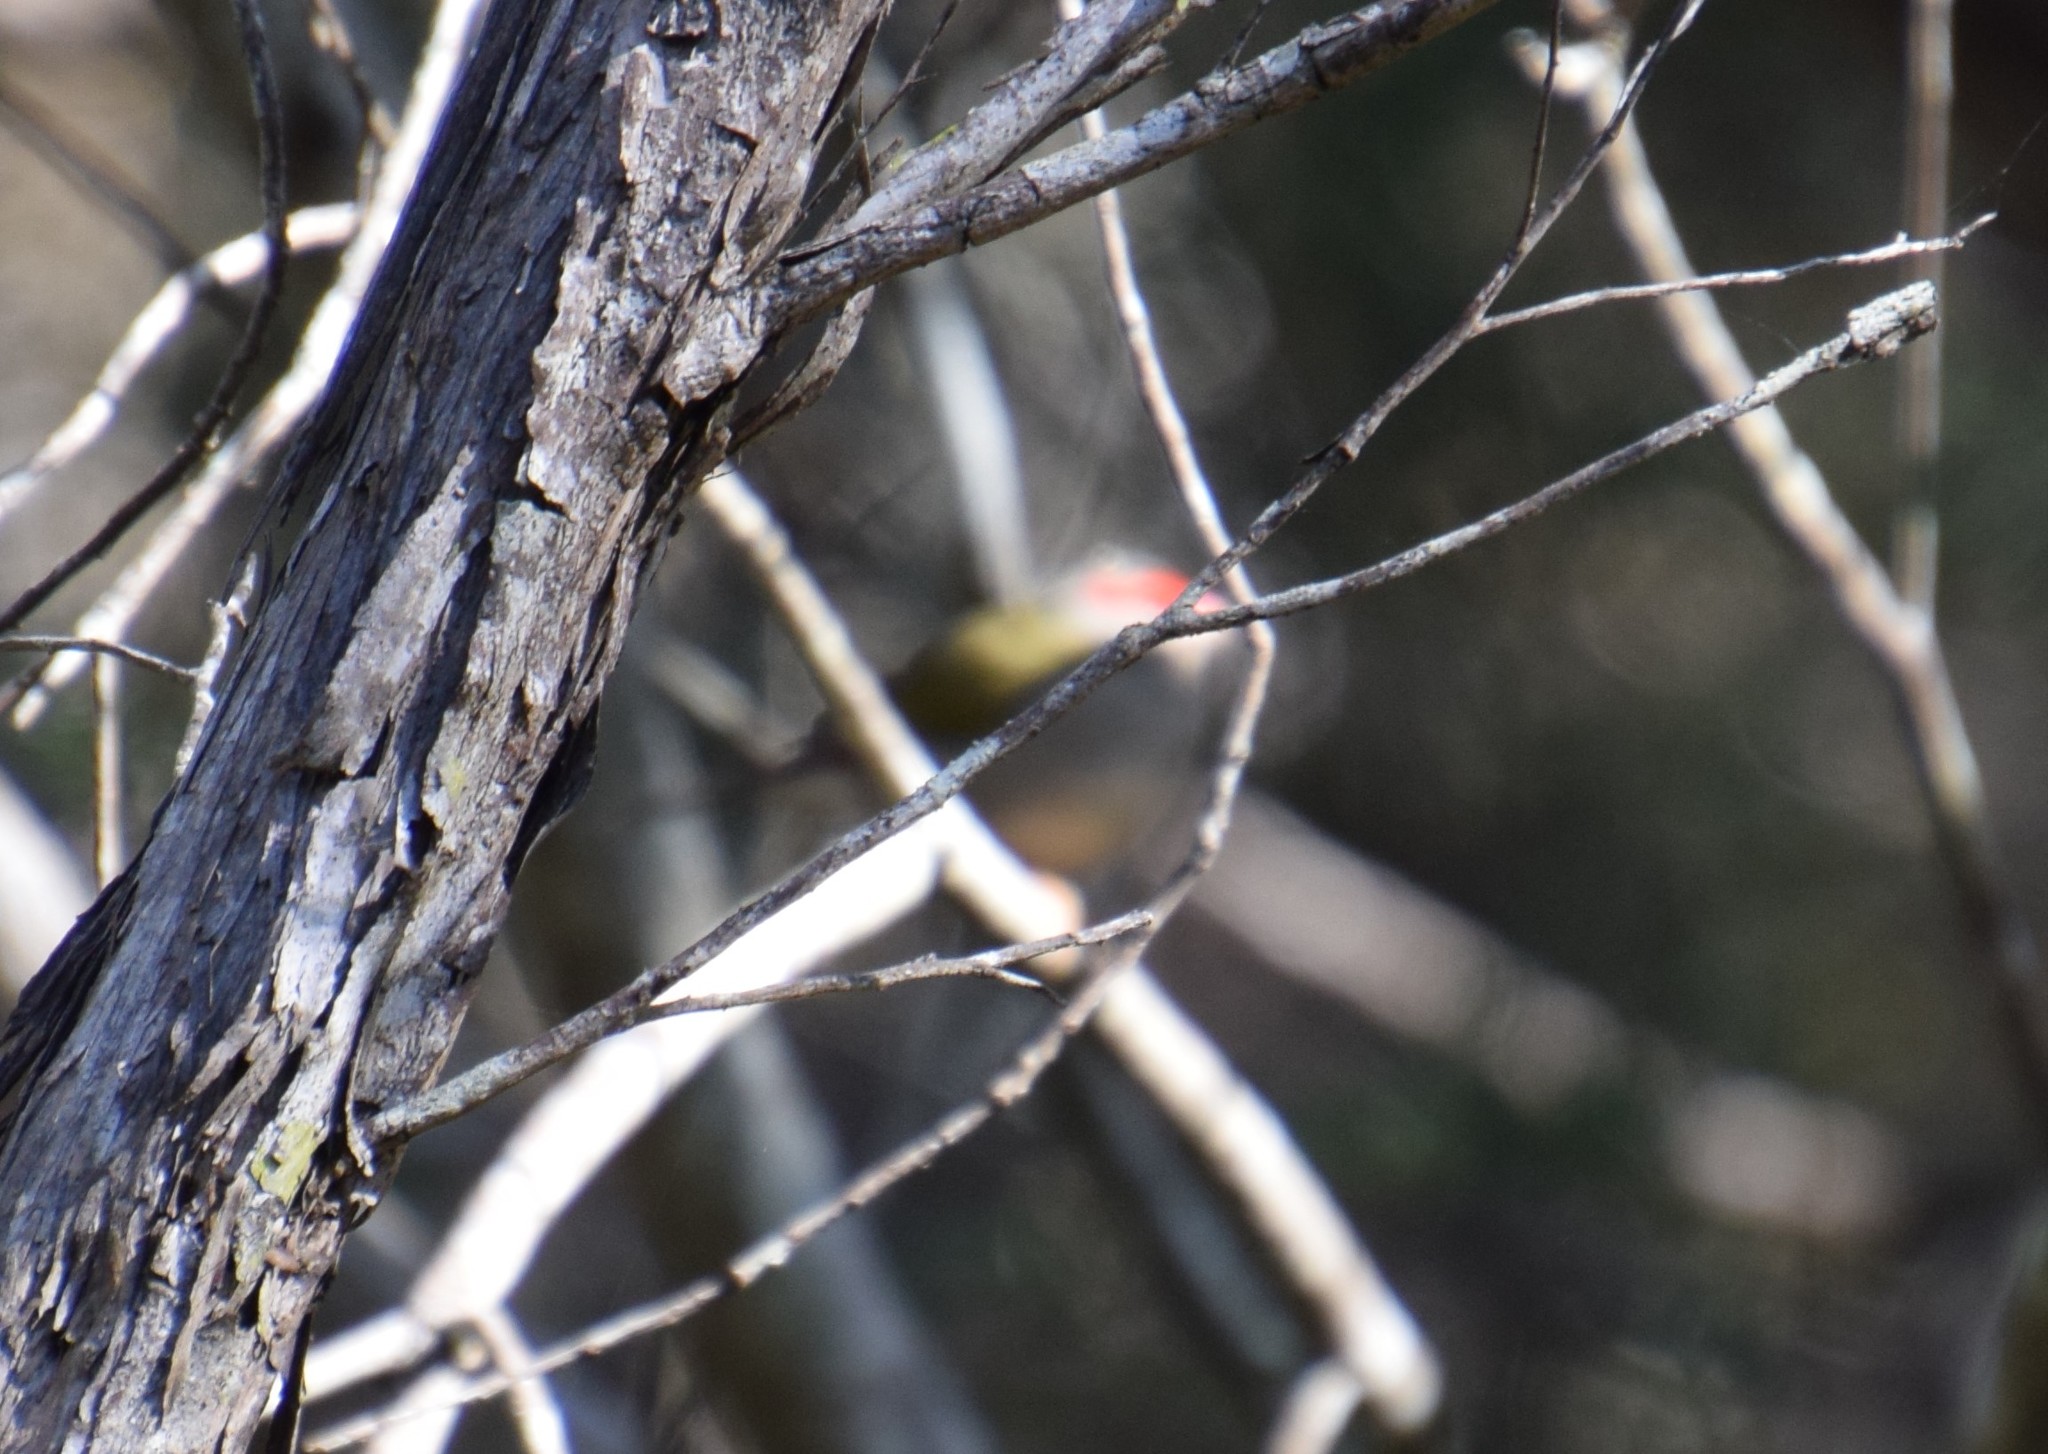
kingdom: Animalia
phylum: Chordata
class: Aves
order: Passeriformes
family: Estrildidae
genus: Neochmia
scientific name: Neochmia temporalis
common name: Red-browed finch
